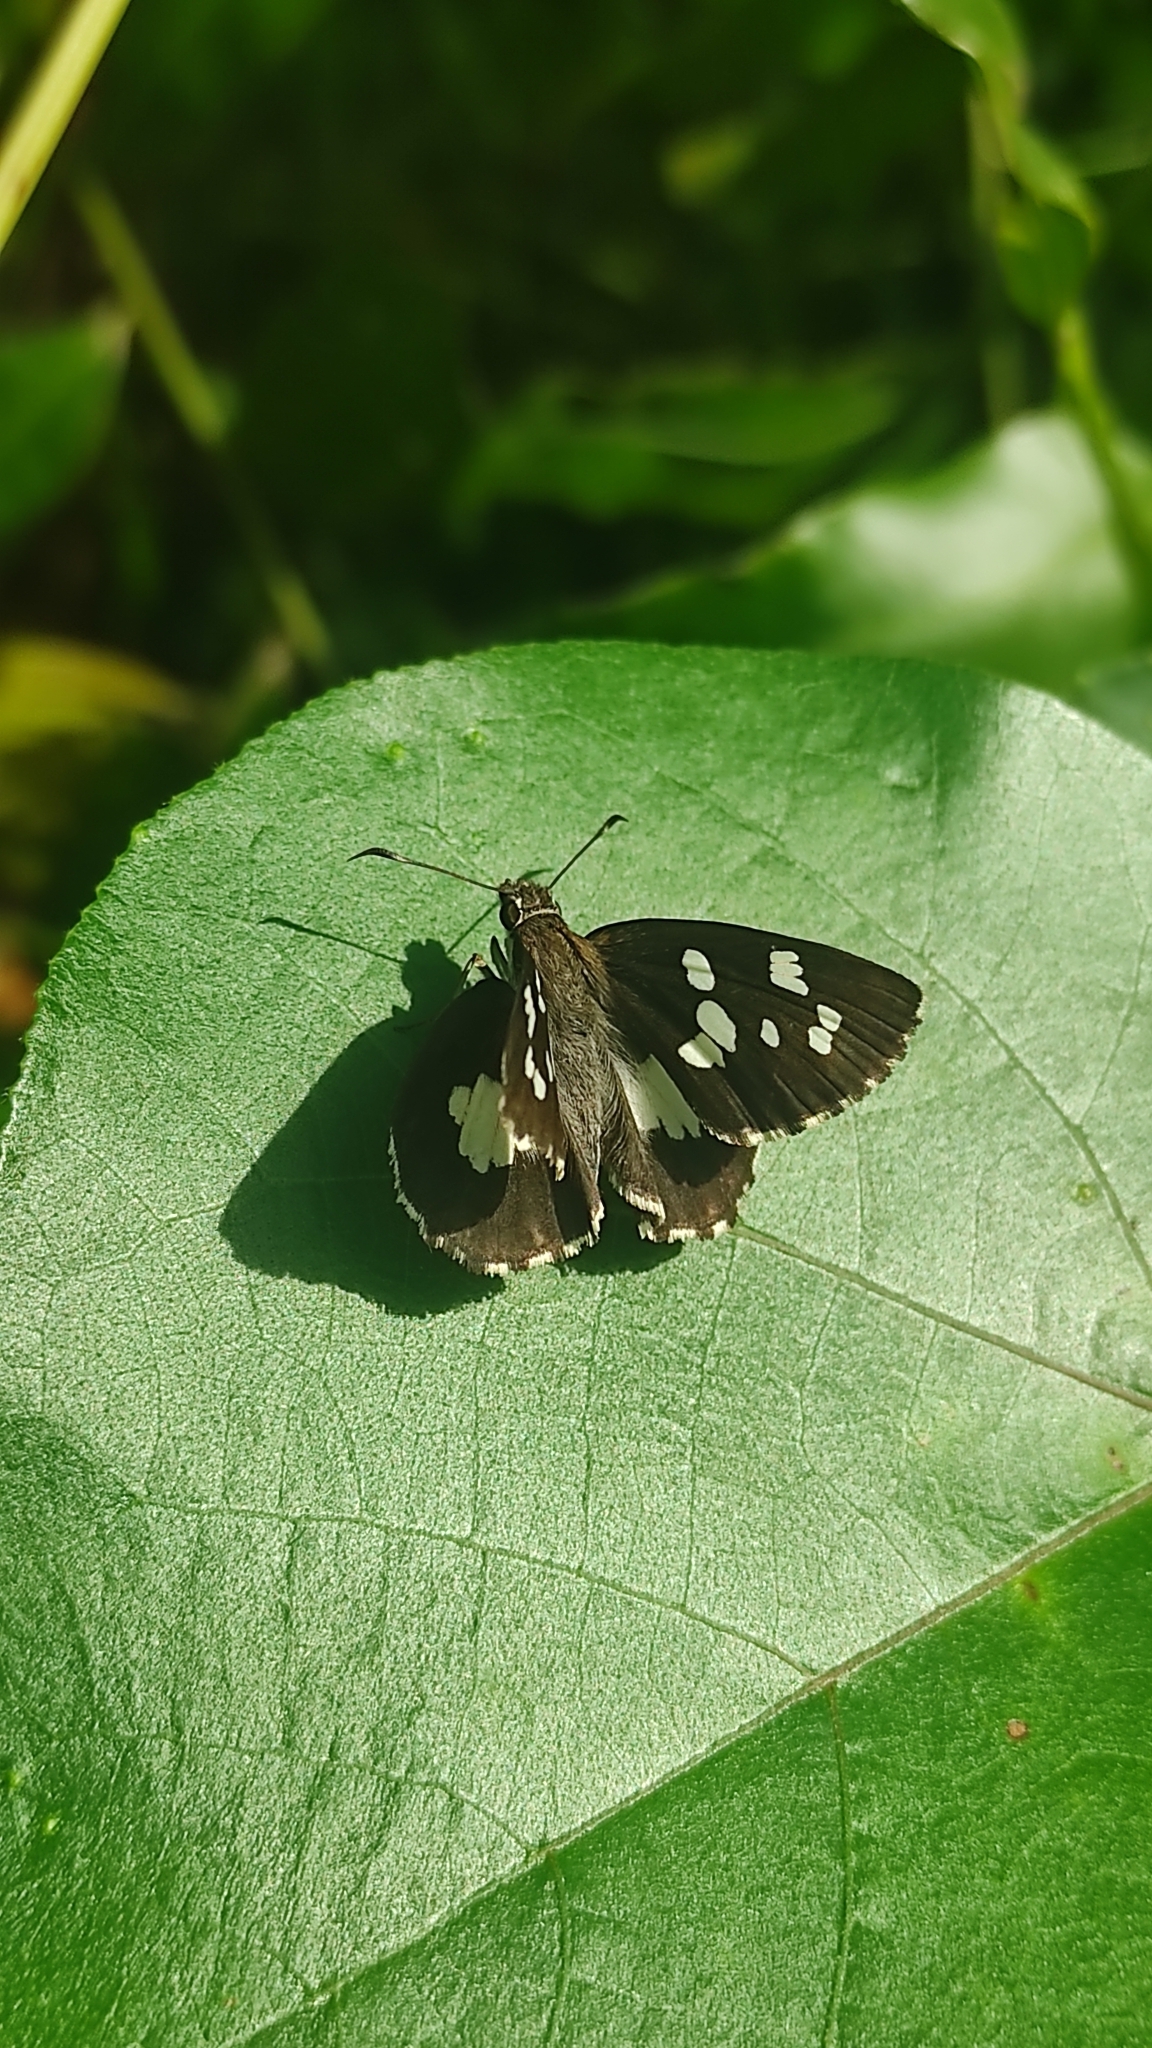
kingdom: Animalia
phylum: Arthropoda
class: Insecta
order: Lepidoptera
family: Hesperiidae
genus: Udaspes
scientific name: Udaspes folus
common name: Grass demon
